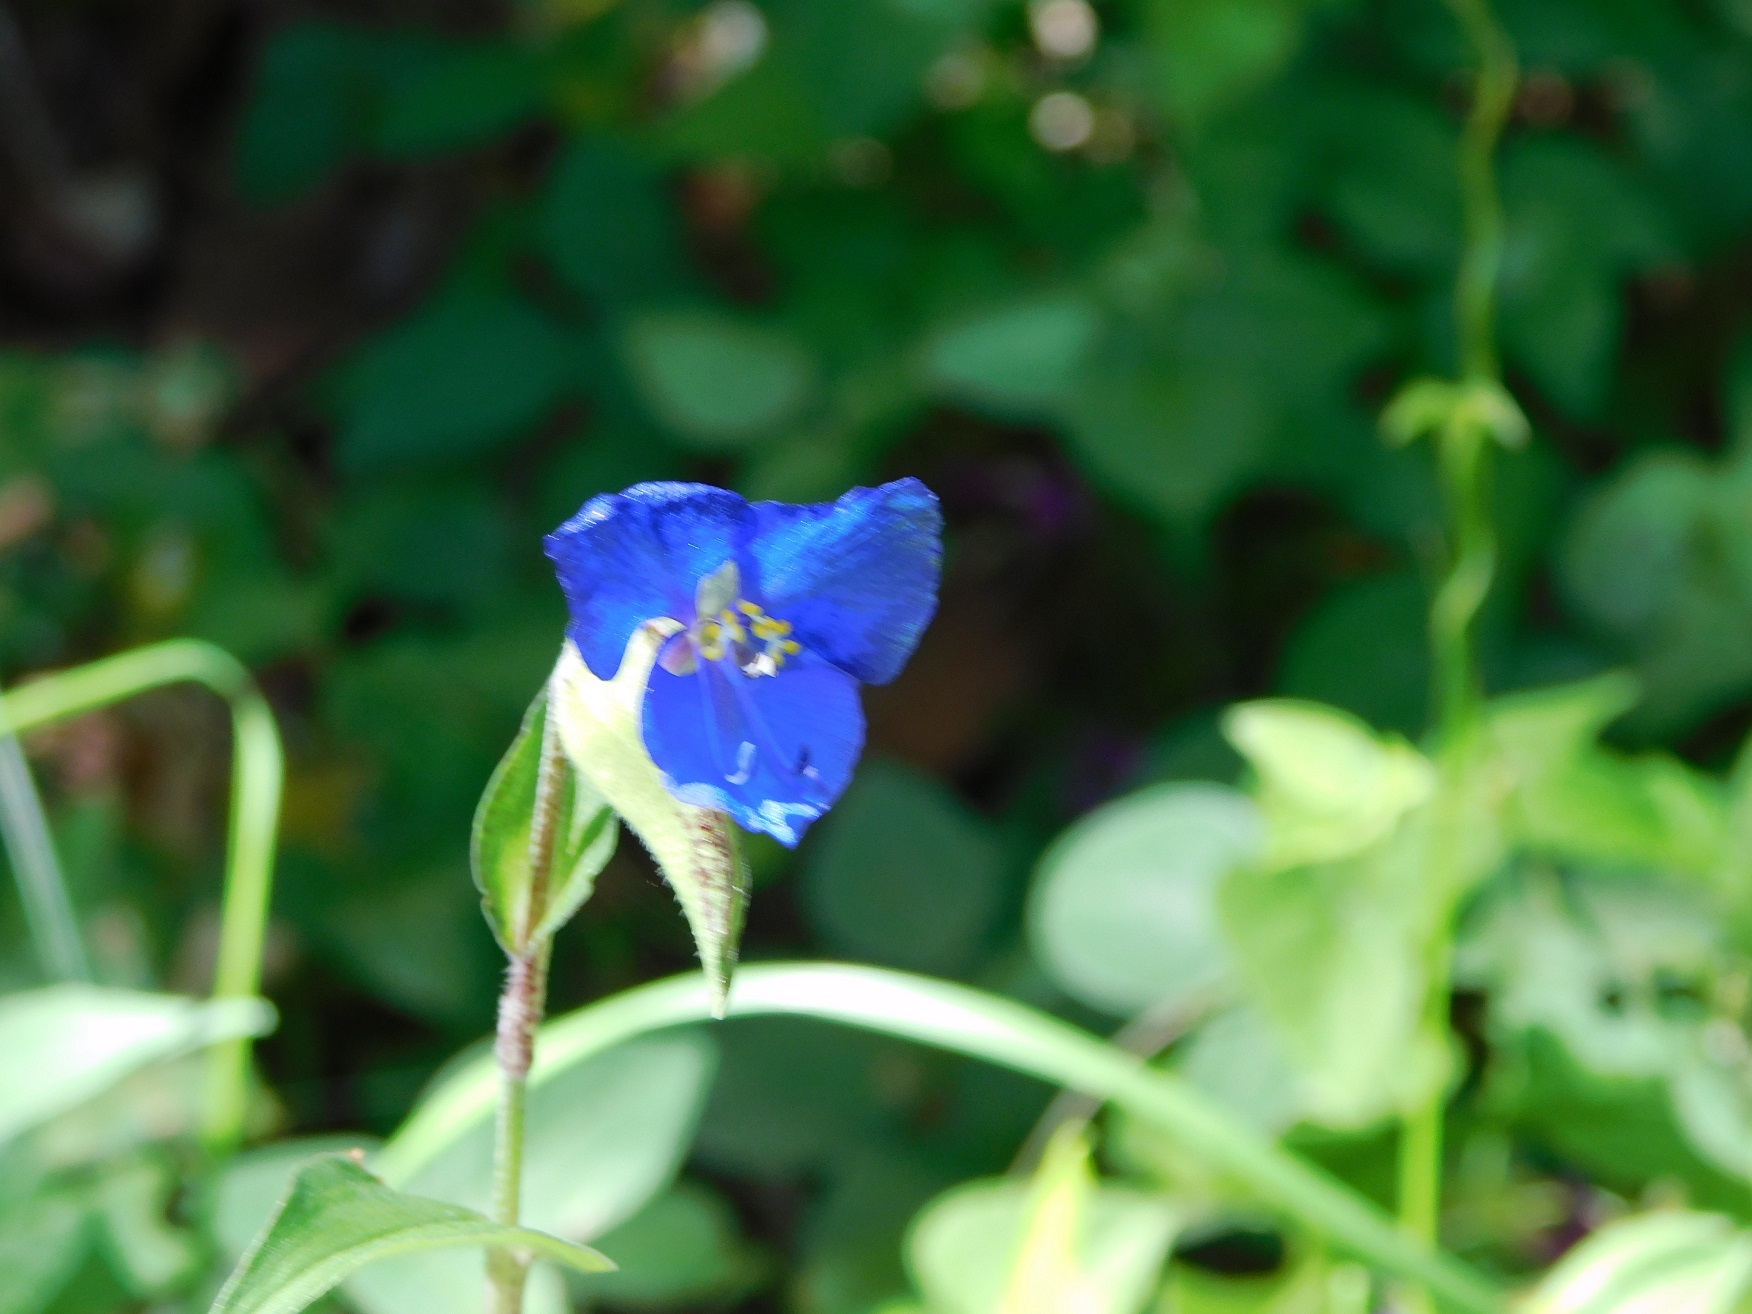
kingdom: Plantae
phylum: Tracheophyta
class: Liliopsida
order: Commelinales
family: Commelinaceae
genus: Commelina
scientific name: Commelina tuberosa
